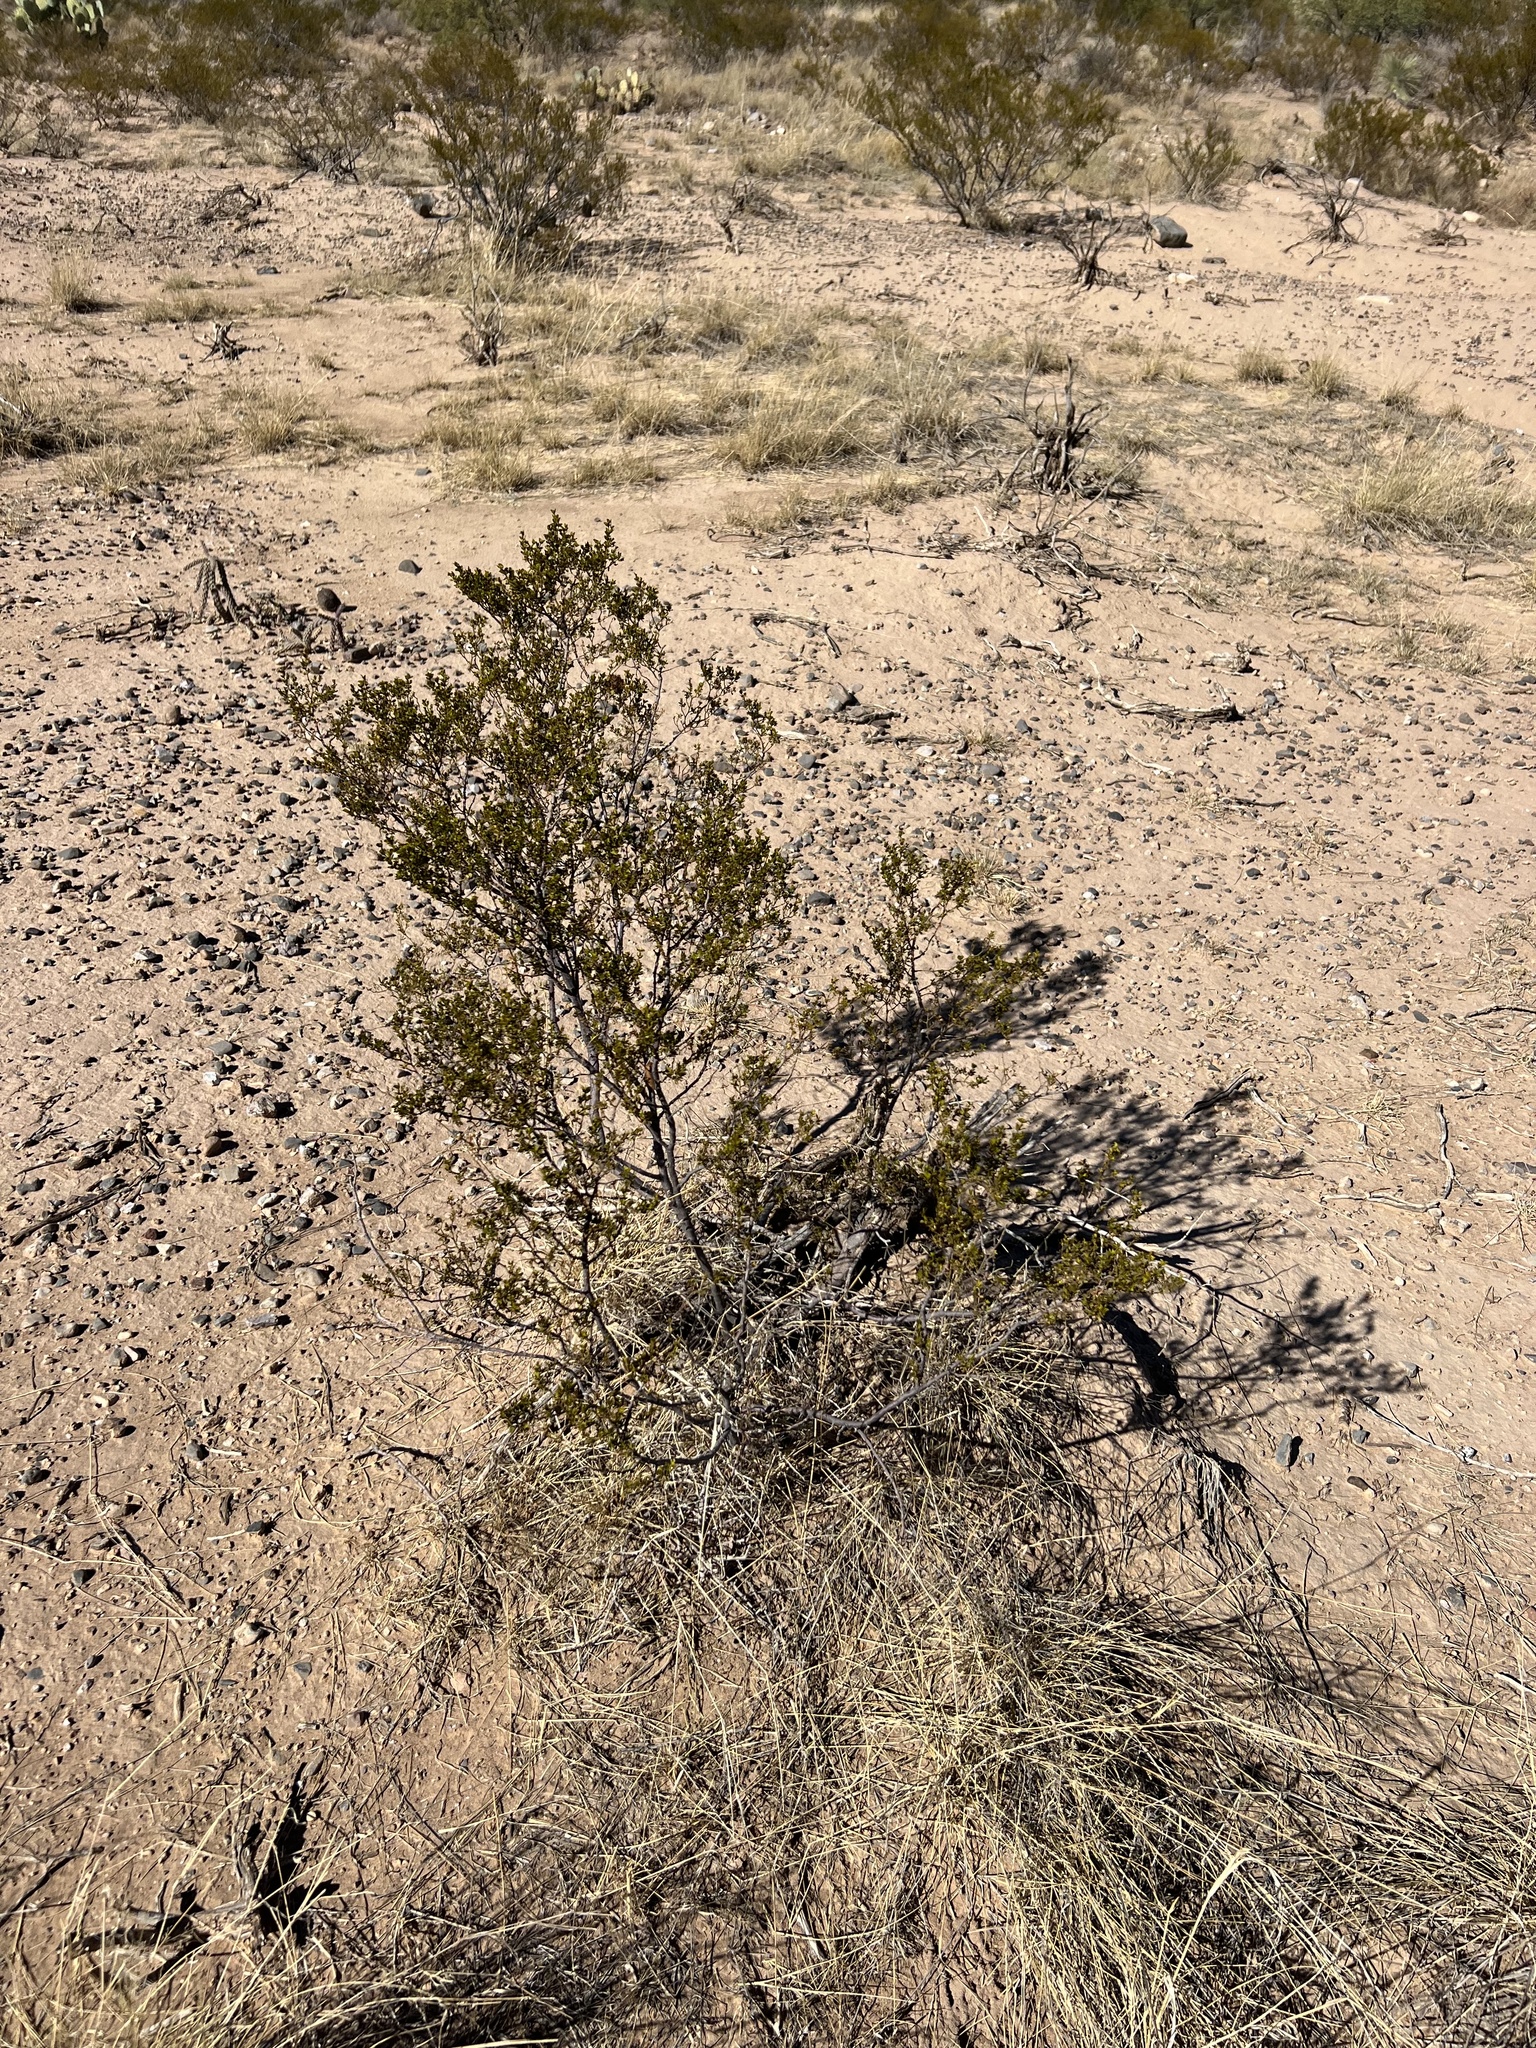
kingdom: Plantae
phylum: Tracheophyta
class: Magnoliopsida
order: Zygophyllales
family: Zygophyllaceae
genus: Larrea
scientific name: Larrea tridentata
